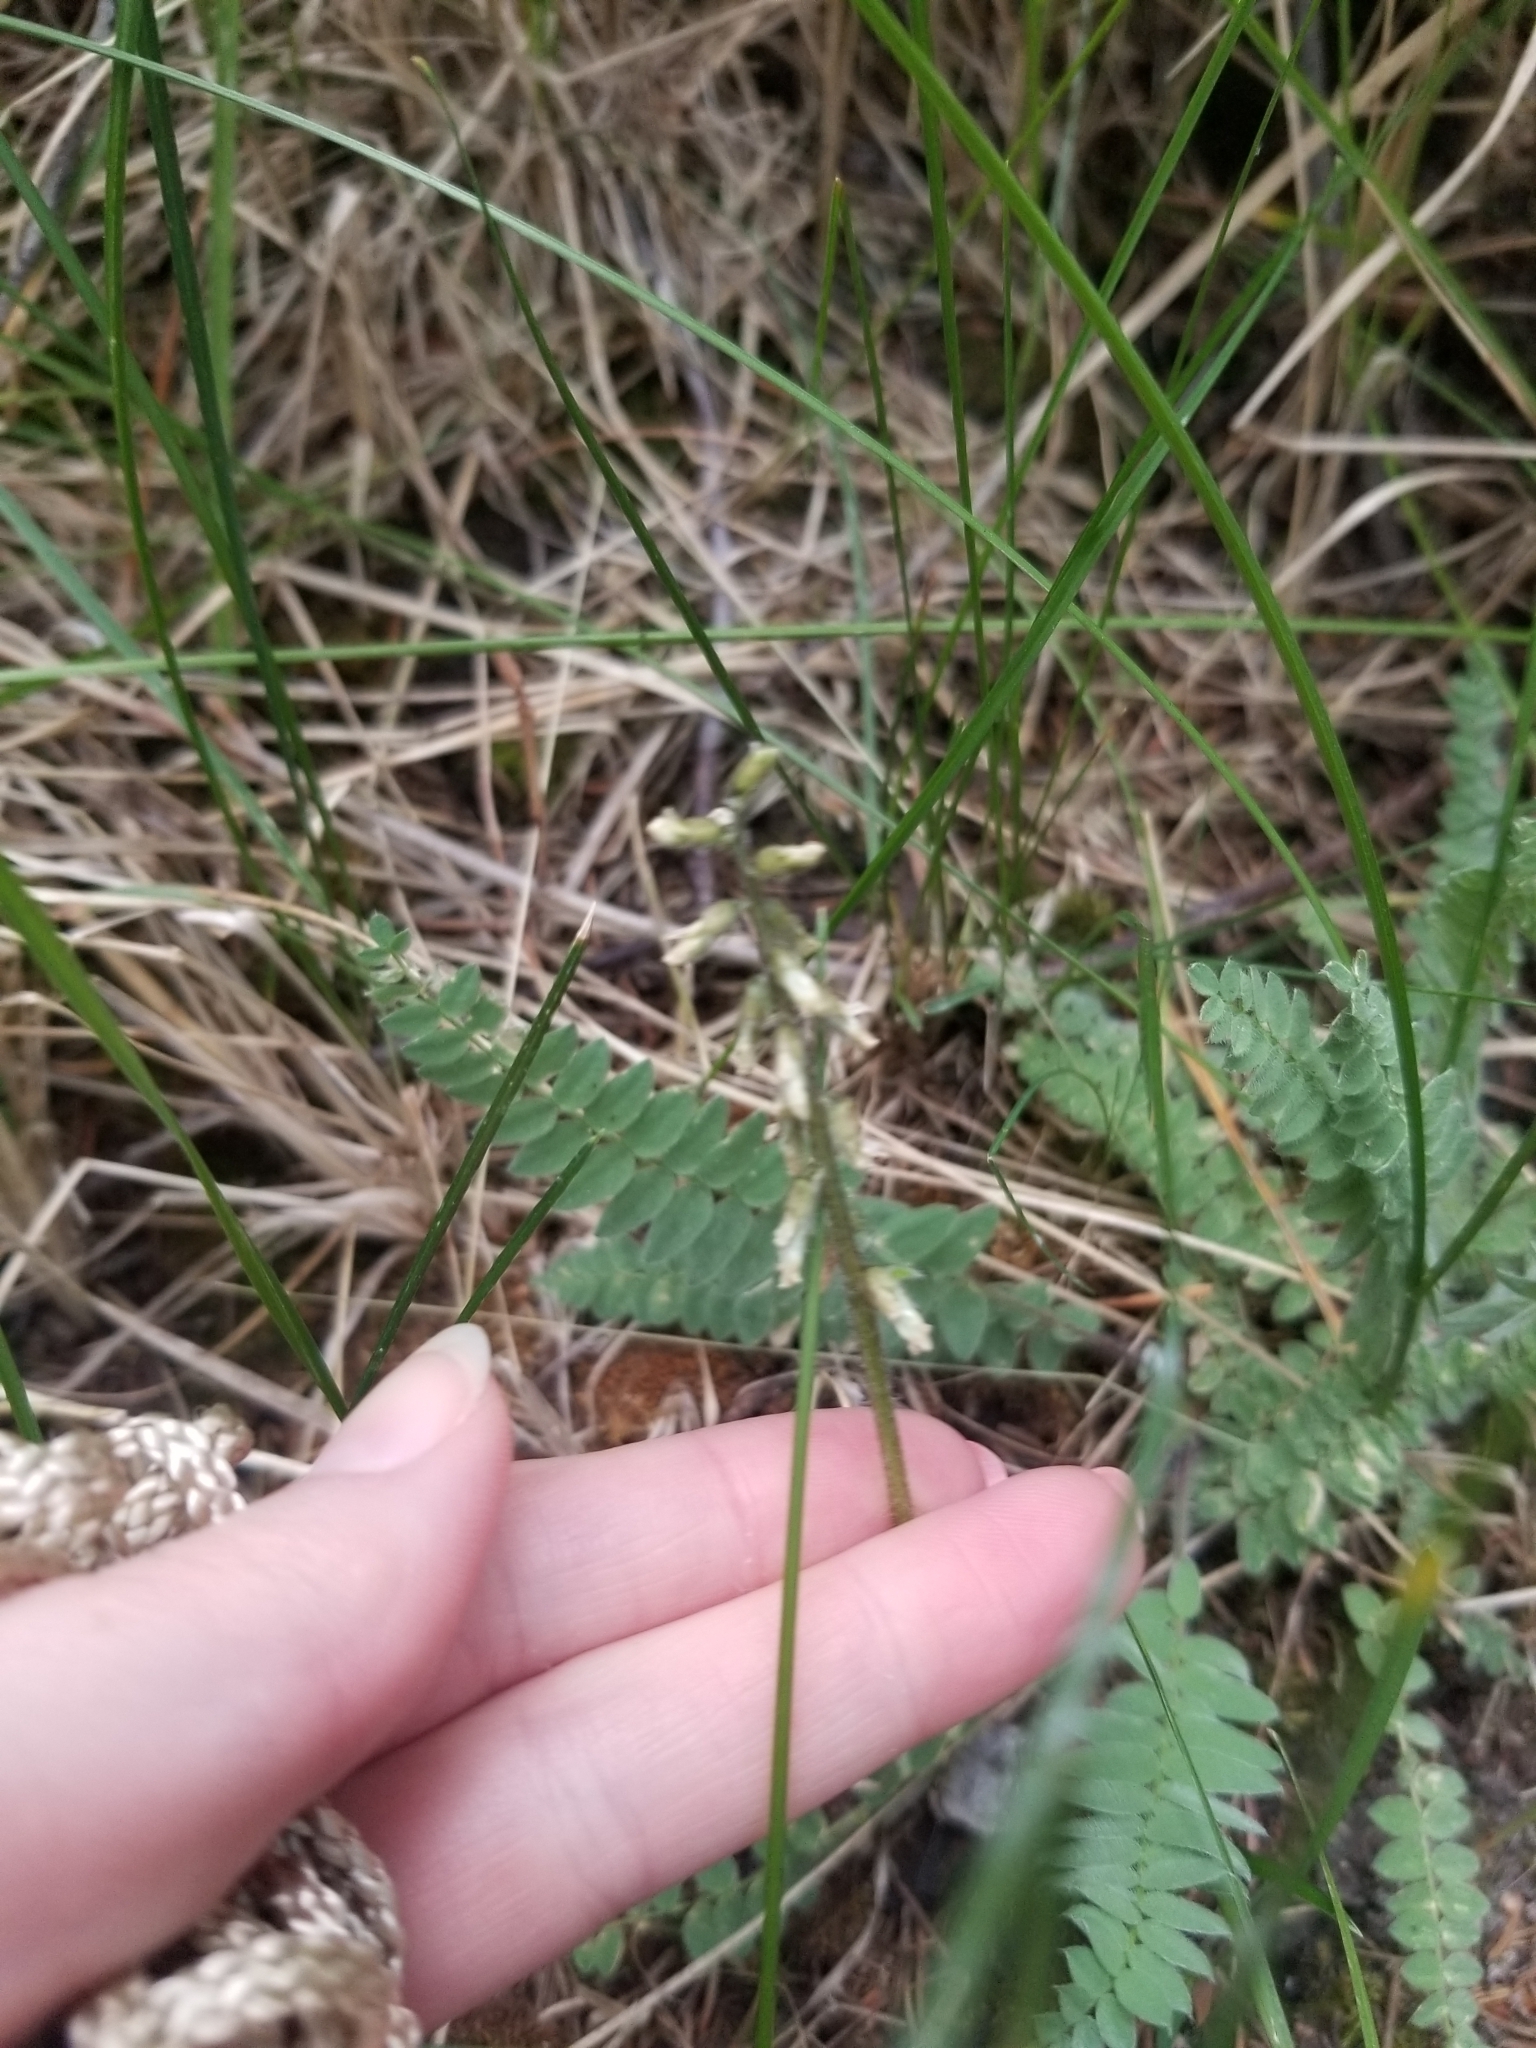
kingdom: Plantae
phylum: Tracheophyta
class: Magnoliopsida
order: Fabales
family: Fabaceae
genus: Oxytropis
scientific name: Oxytropis deflexa
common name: Stemmed oxytrope
